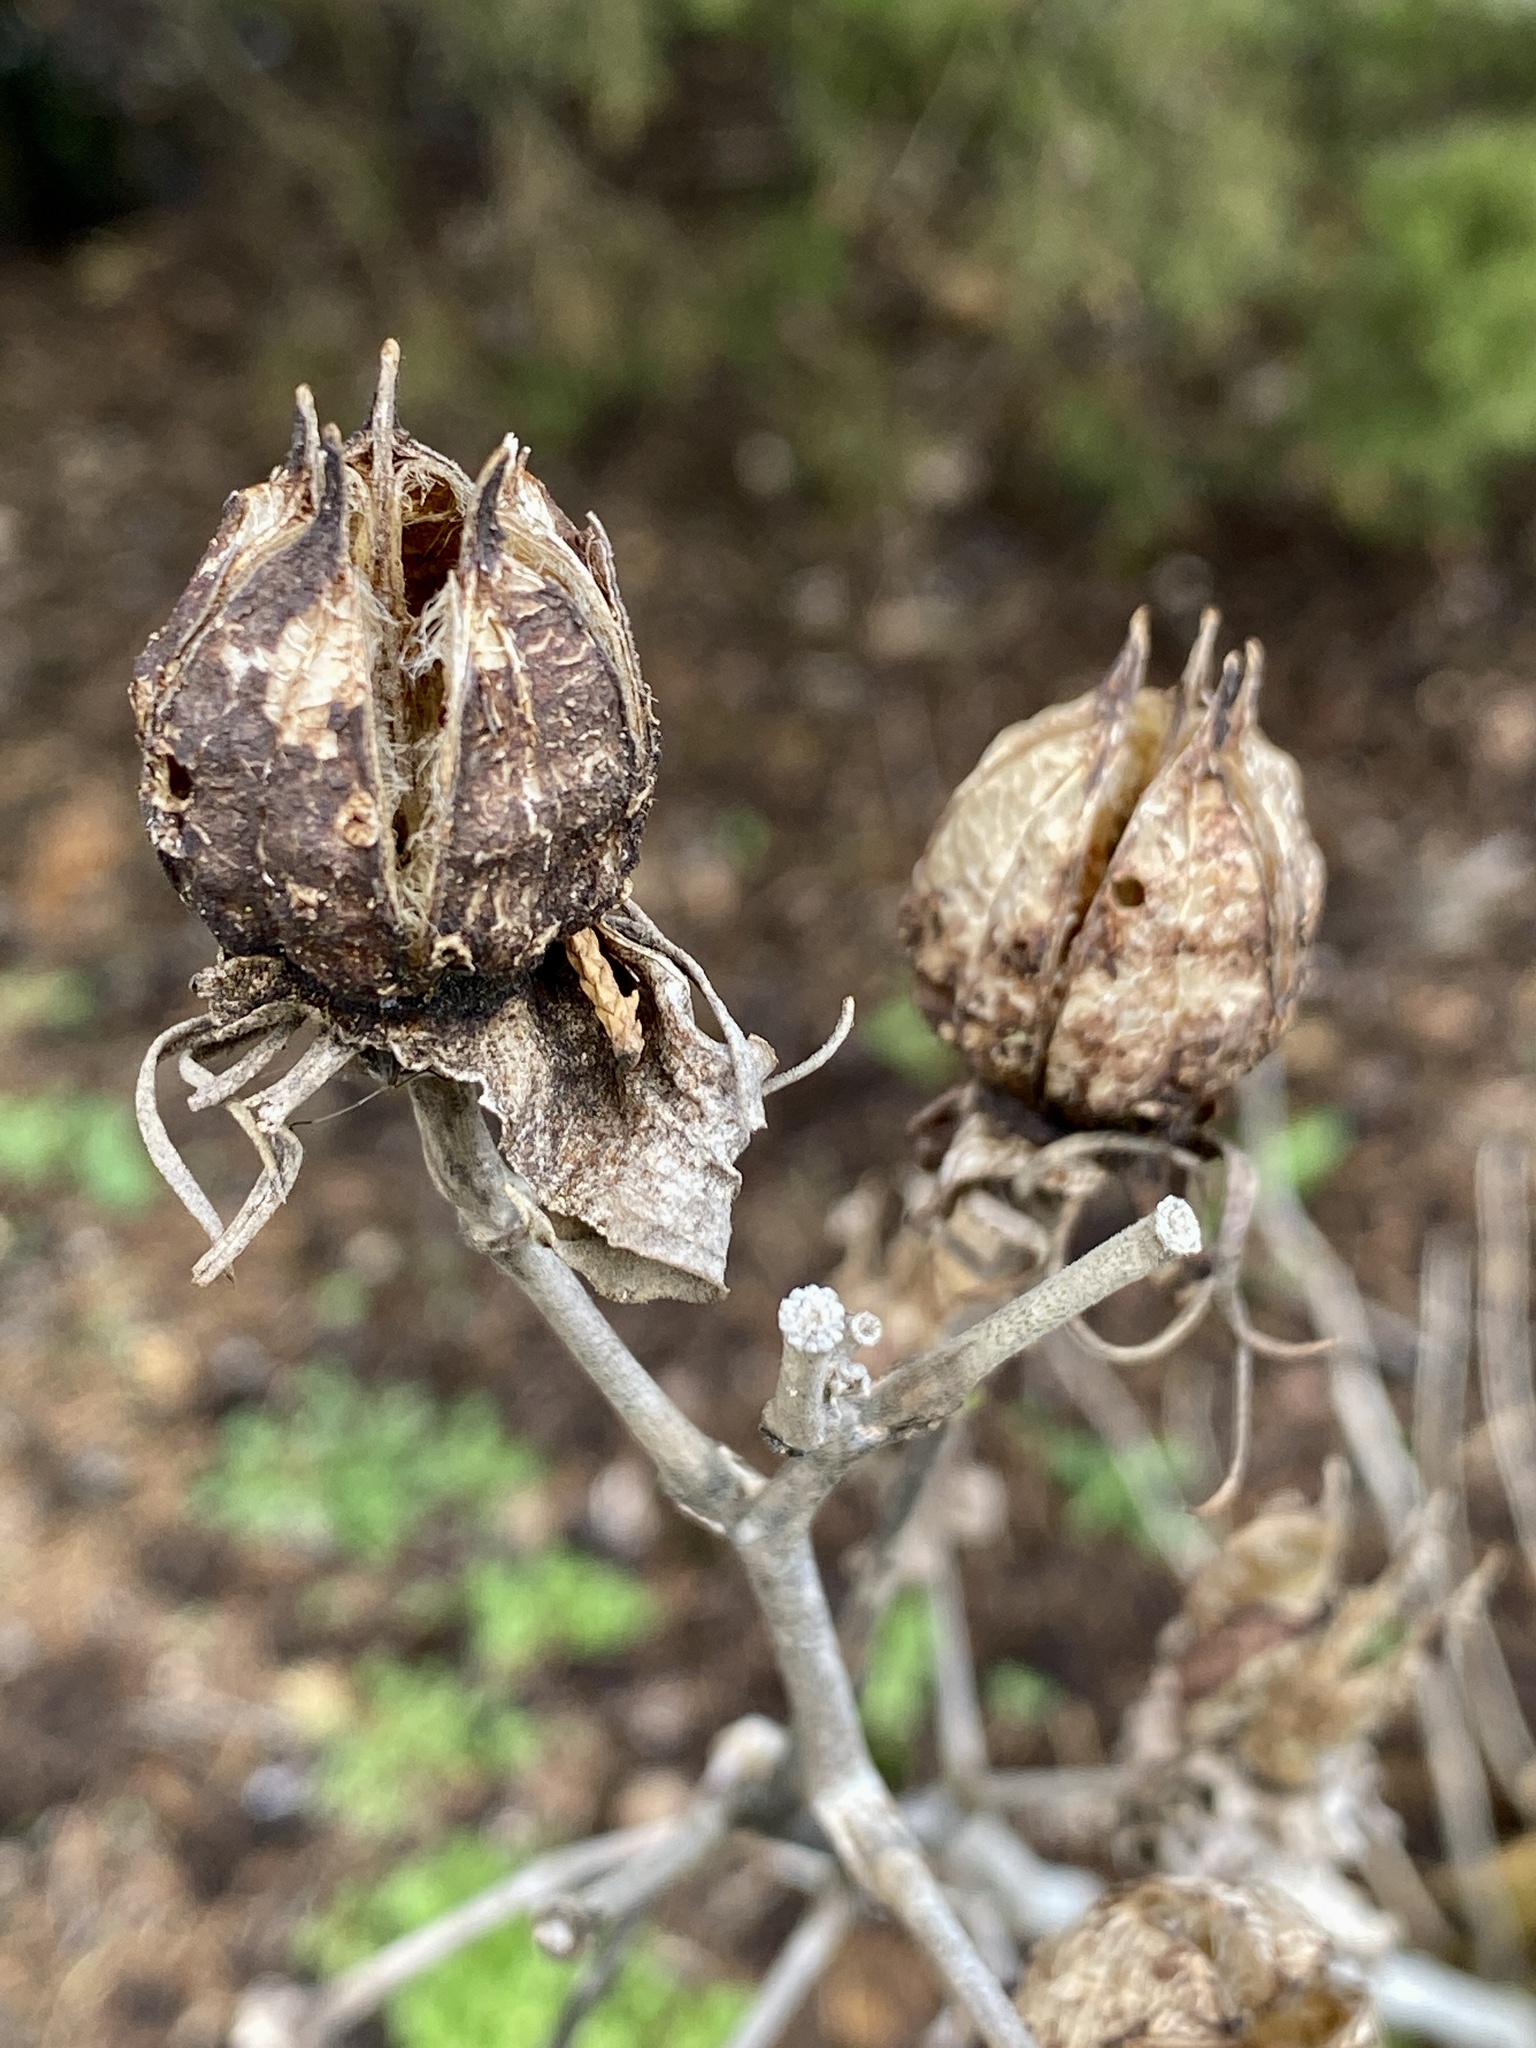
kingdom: Plantae
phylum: Tracheophyta
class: Magnoliopsida
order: Malvales
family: Malvaceae
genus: Hibiscus
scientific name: Hibiscus moscheutos
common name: Common rose-mallow
